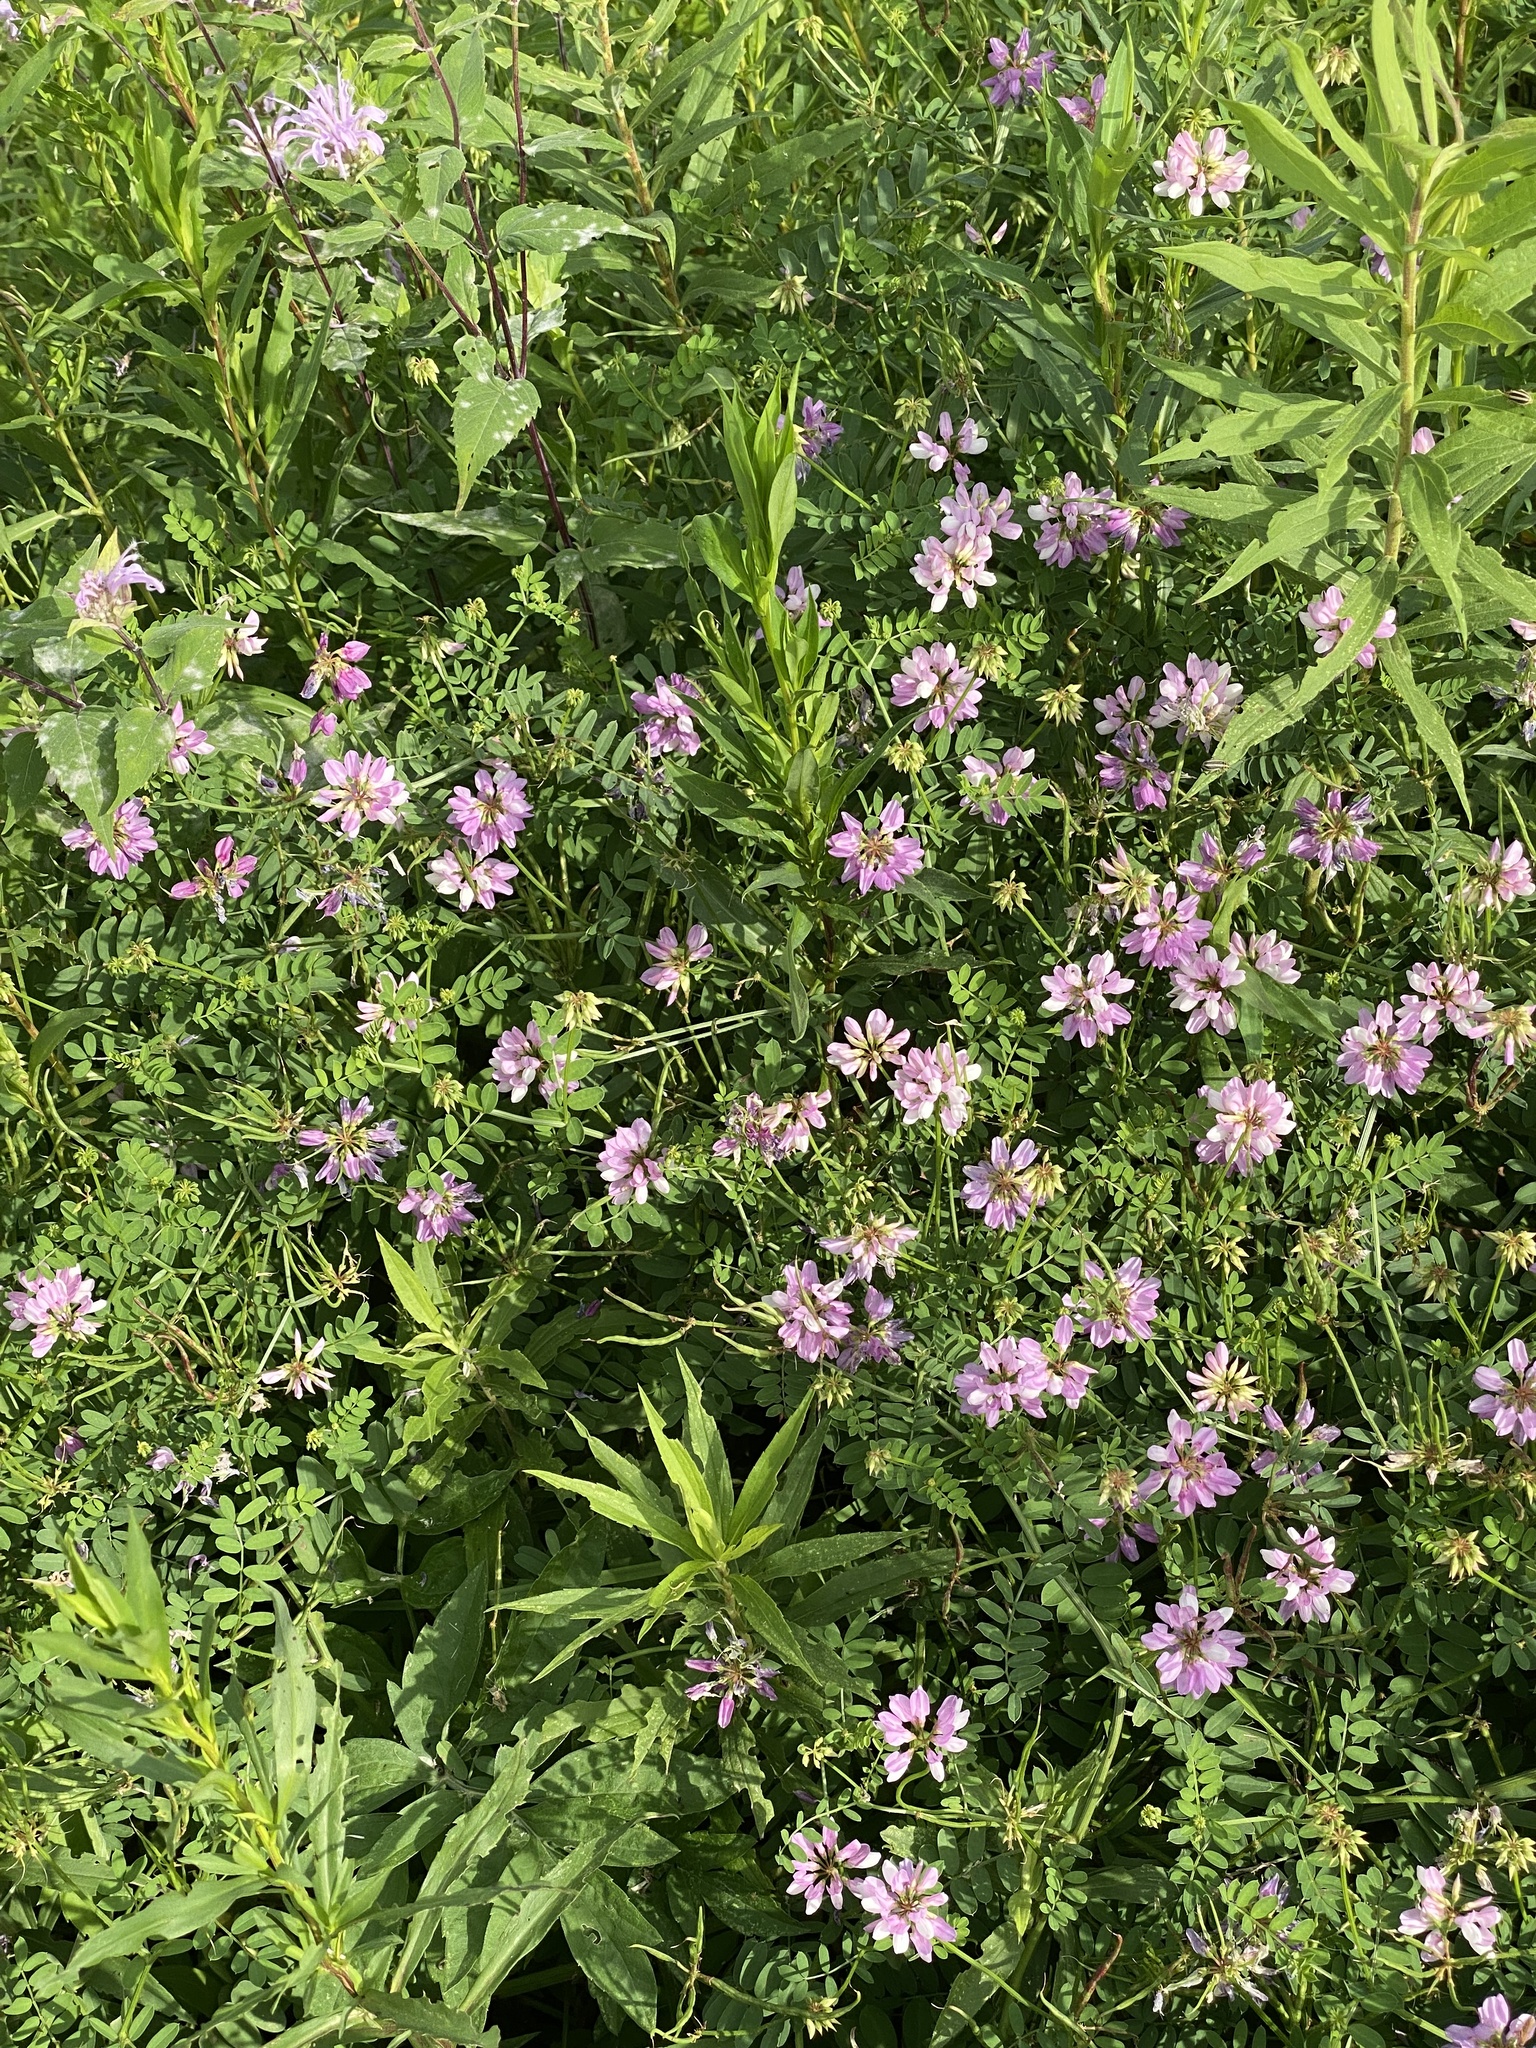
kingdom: Plantae
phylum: Tracheophyta
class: Magnoliopsida
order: Fabales
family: Fabaceae
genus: Coronilla
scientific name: Coronilla varia
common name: Crownvetch
